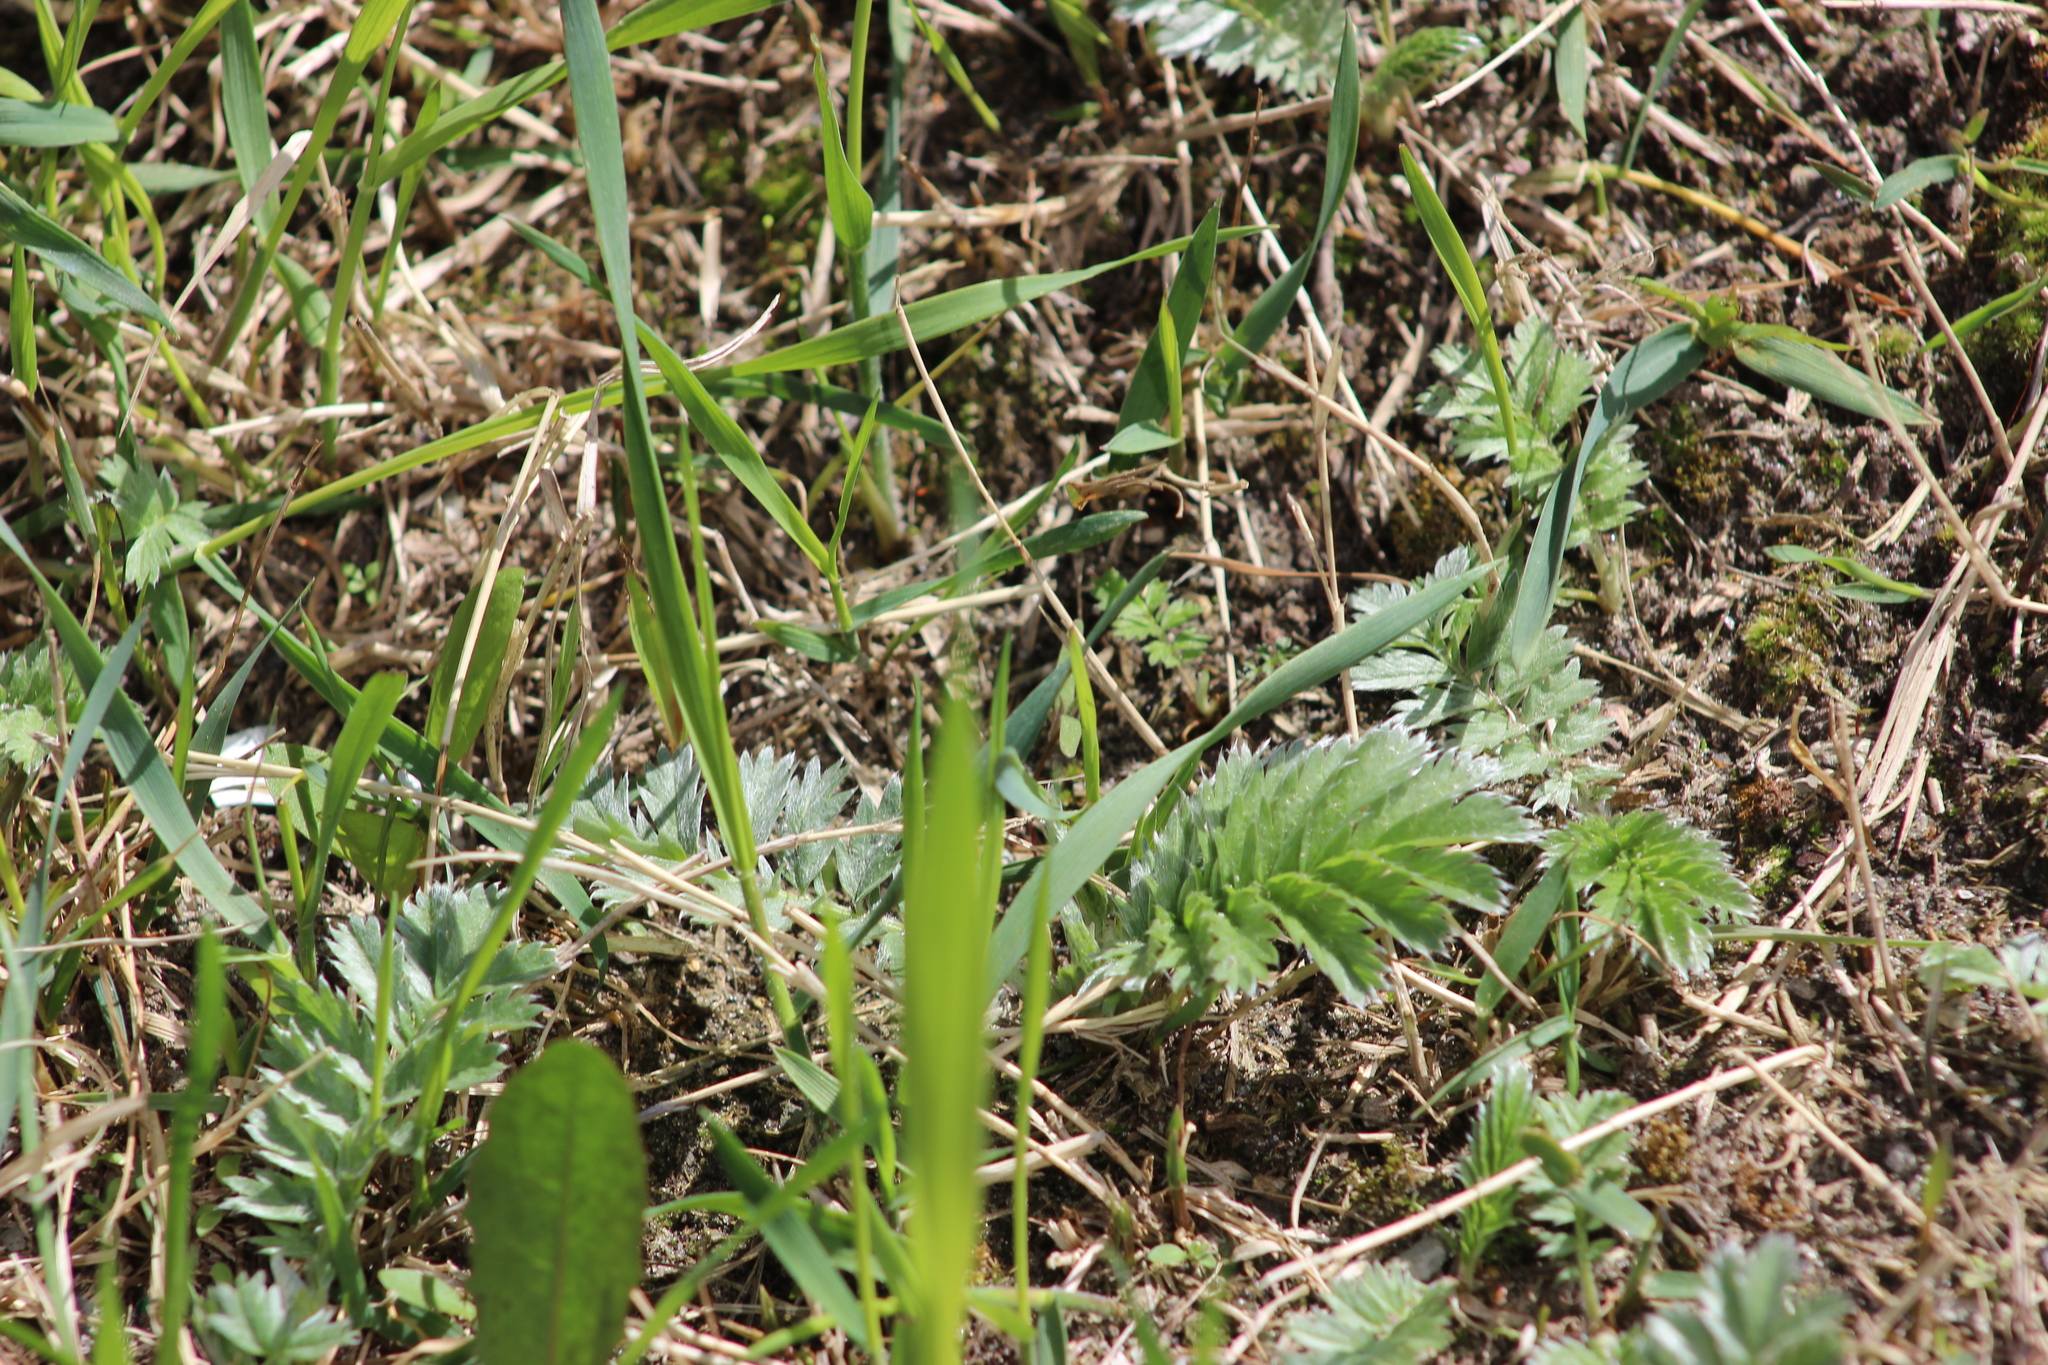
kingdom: Plantae
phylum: Tracheophyta
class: Magnoliopsida
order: Rosales
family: Rosaceae
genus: Argentina
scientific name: Argentina anserina
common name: Common silverweed
